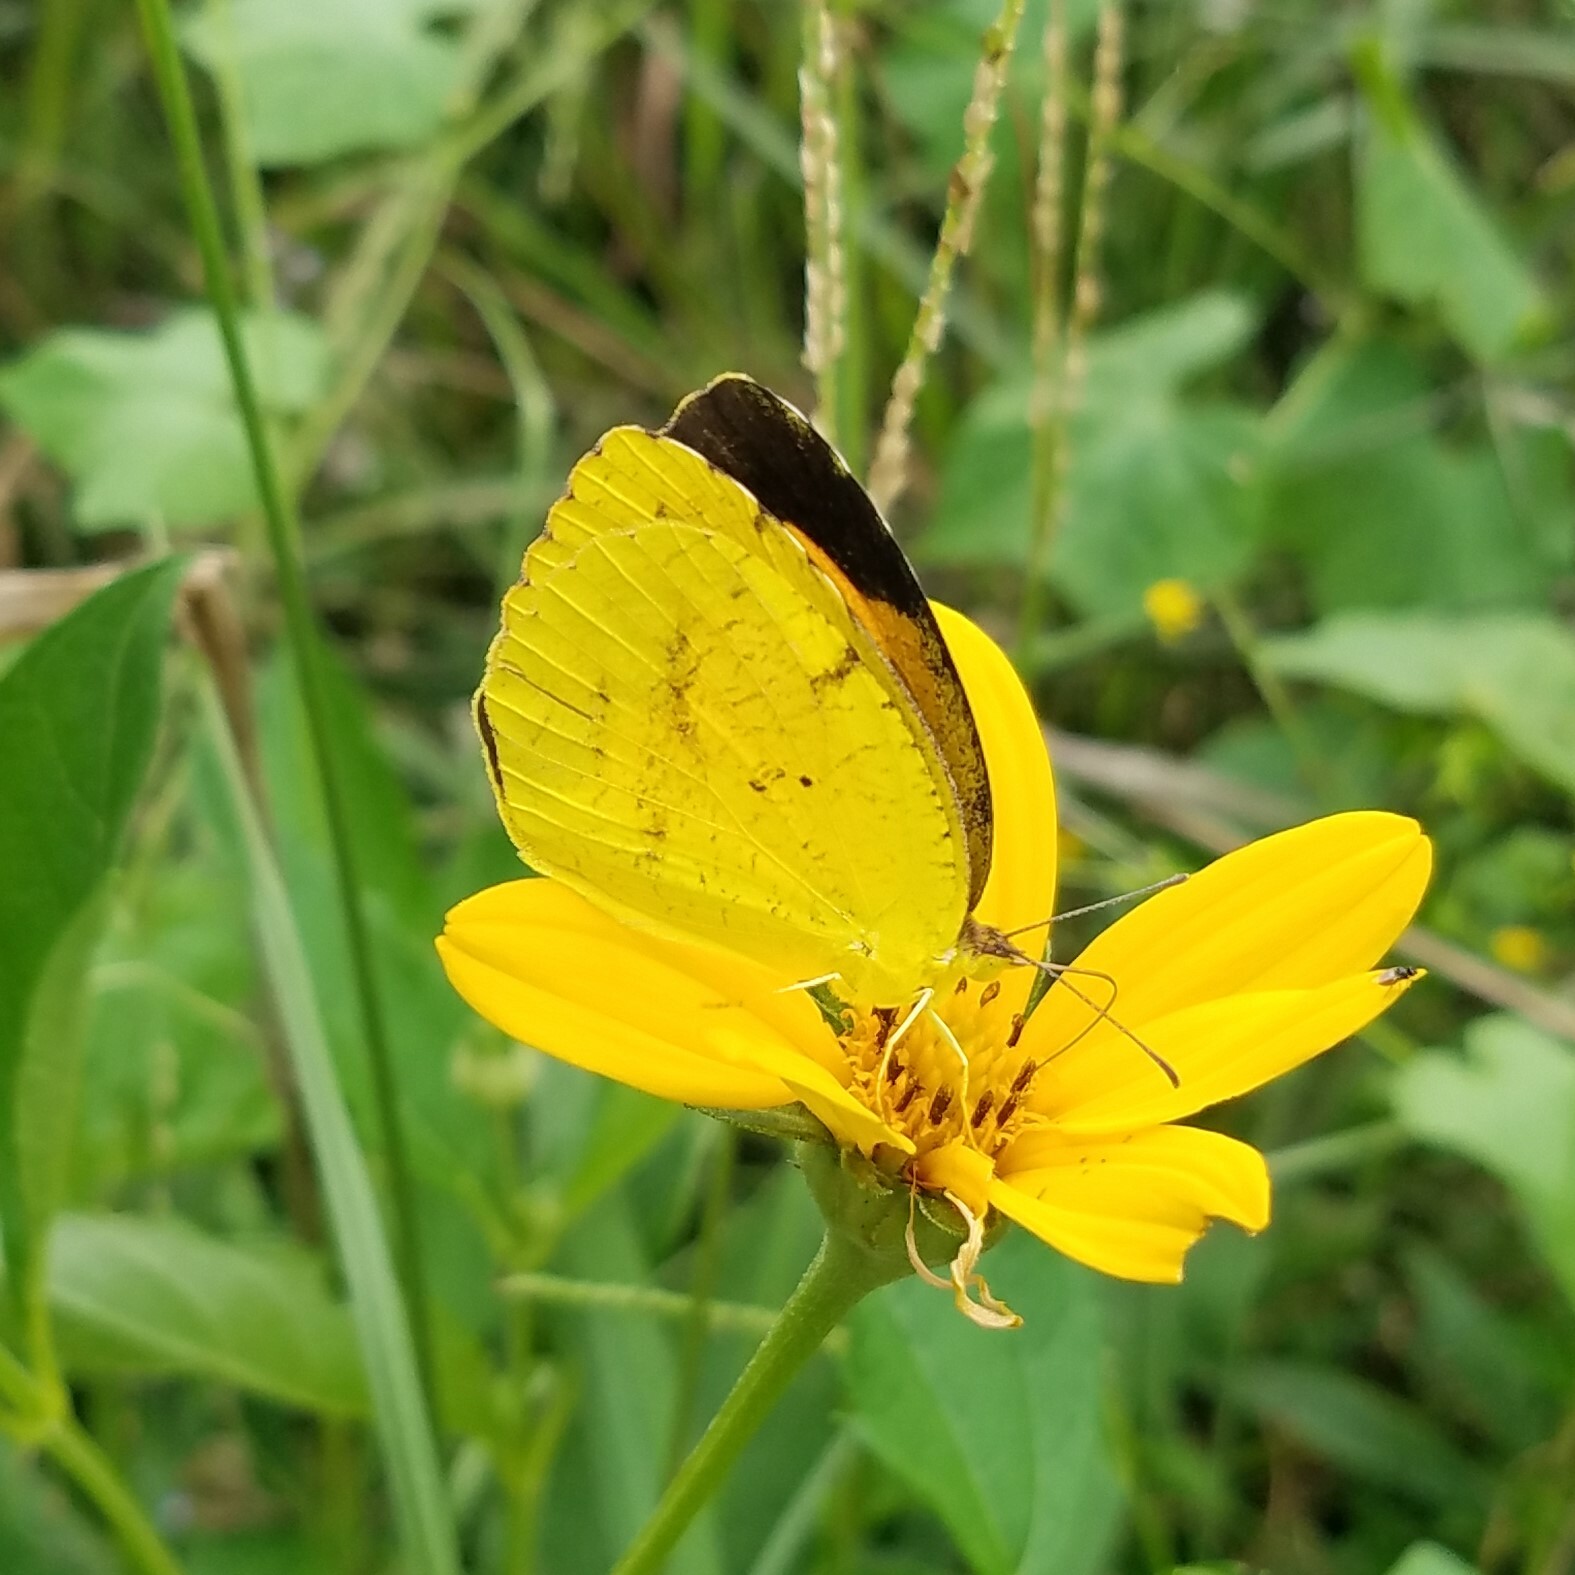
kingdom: Animalia
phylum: Arthropoda
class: Insecta
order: Lepidoptera
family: Pieridae
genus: Abaeis
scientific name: Abaeis nicippe
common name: Sleepy orange
